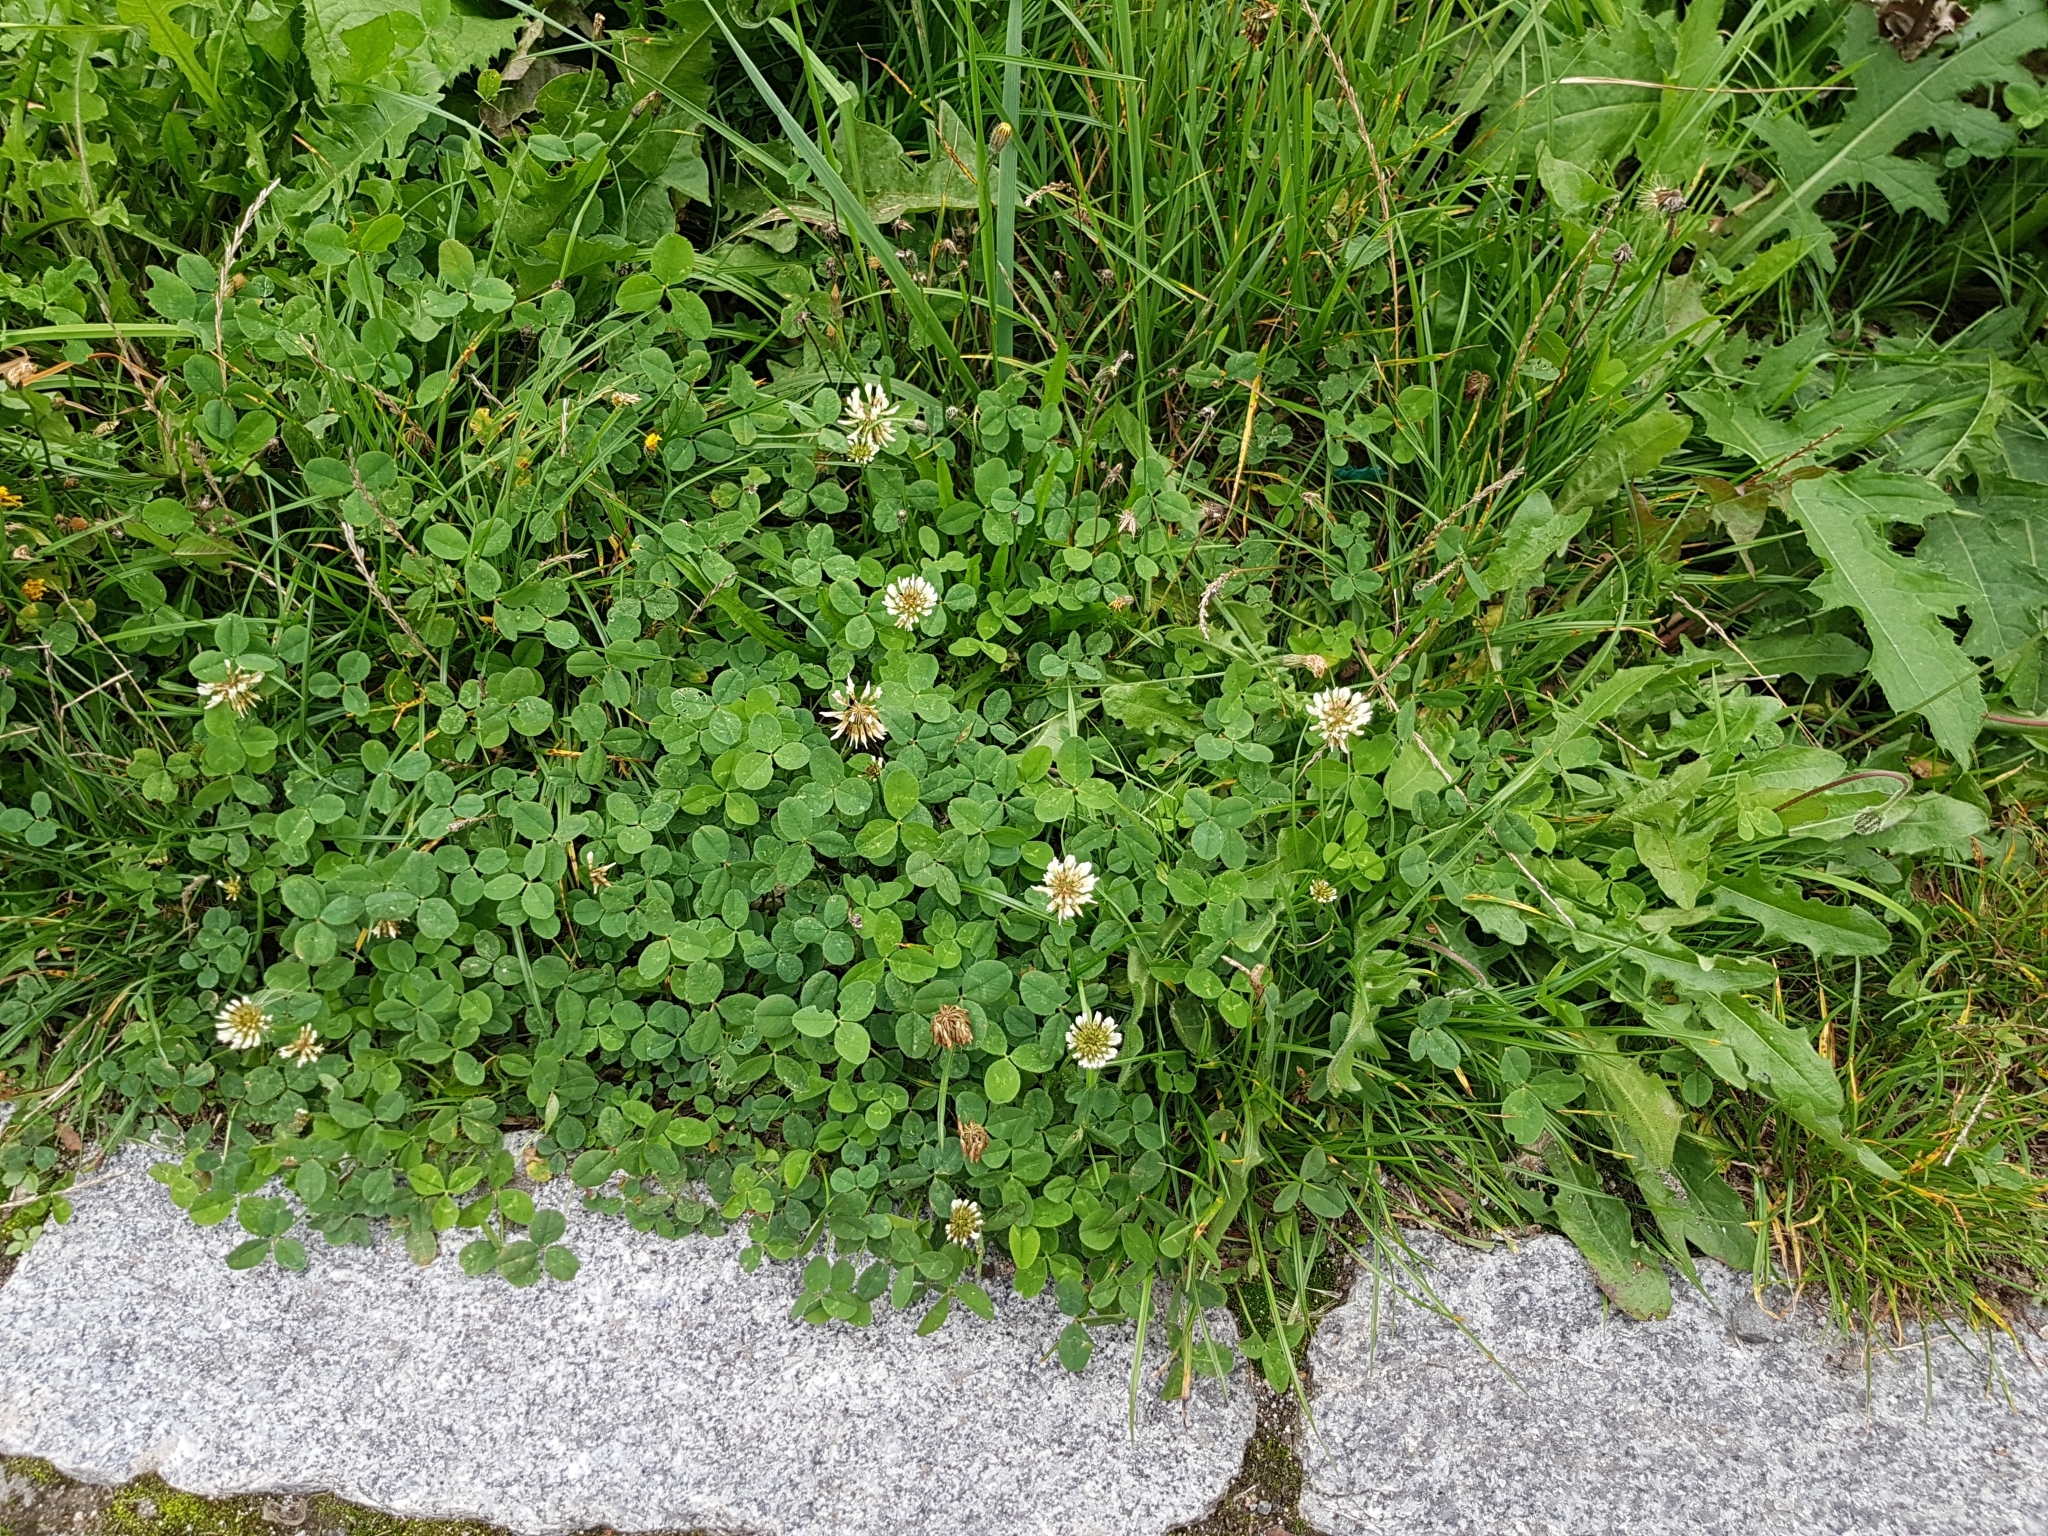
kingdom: Plantae
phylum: Tracheophyta
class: Magnoliopsida
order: Fabales
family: Fabaceae
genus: Trifolium
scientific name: Trifolium repens
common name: White clover
